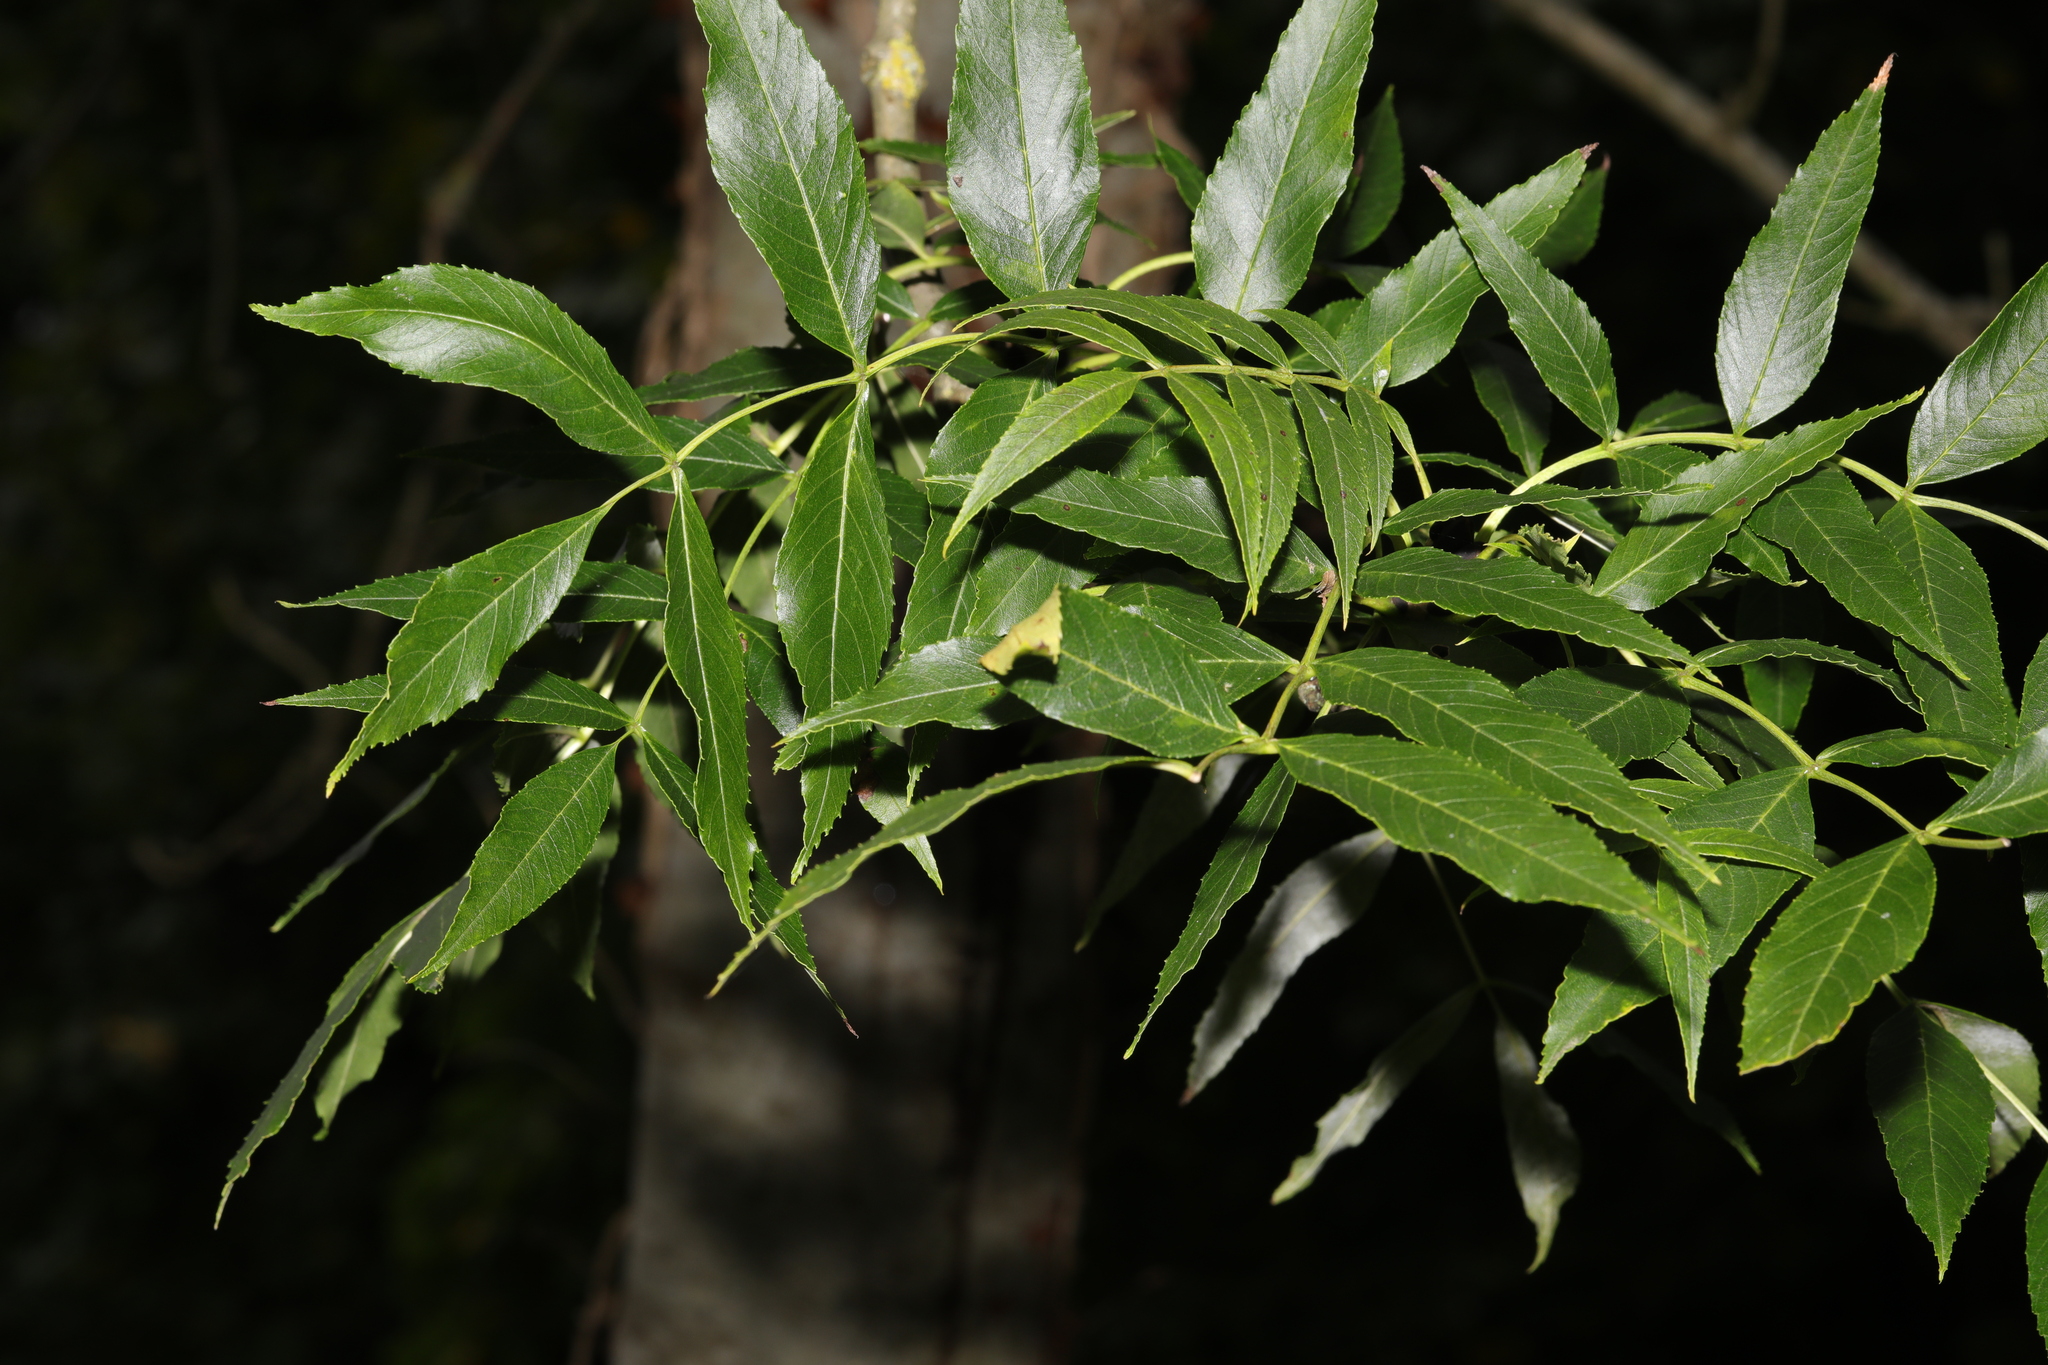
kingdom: Plantae
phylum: Tracheophyta
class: Magnoliopsida
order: Lamiales
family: Oleaceae
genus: Fraxinus
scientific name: Fraxinus excelsior
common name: European ash
